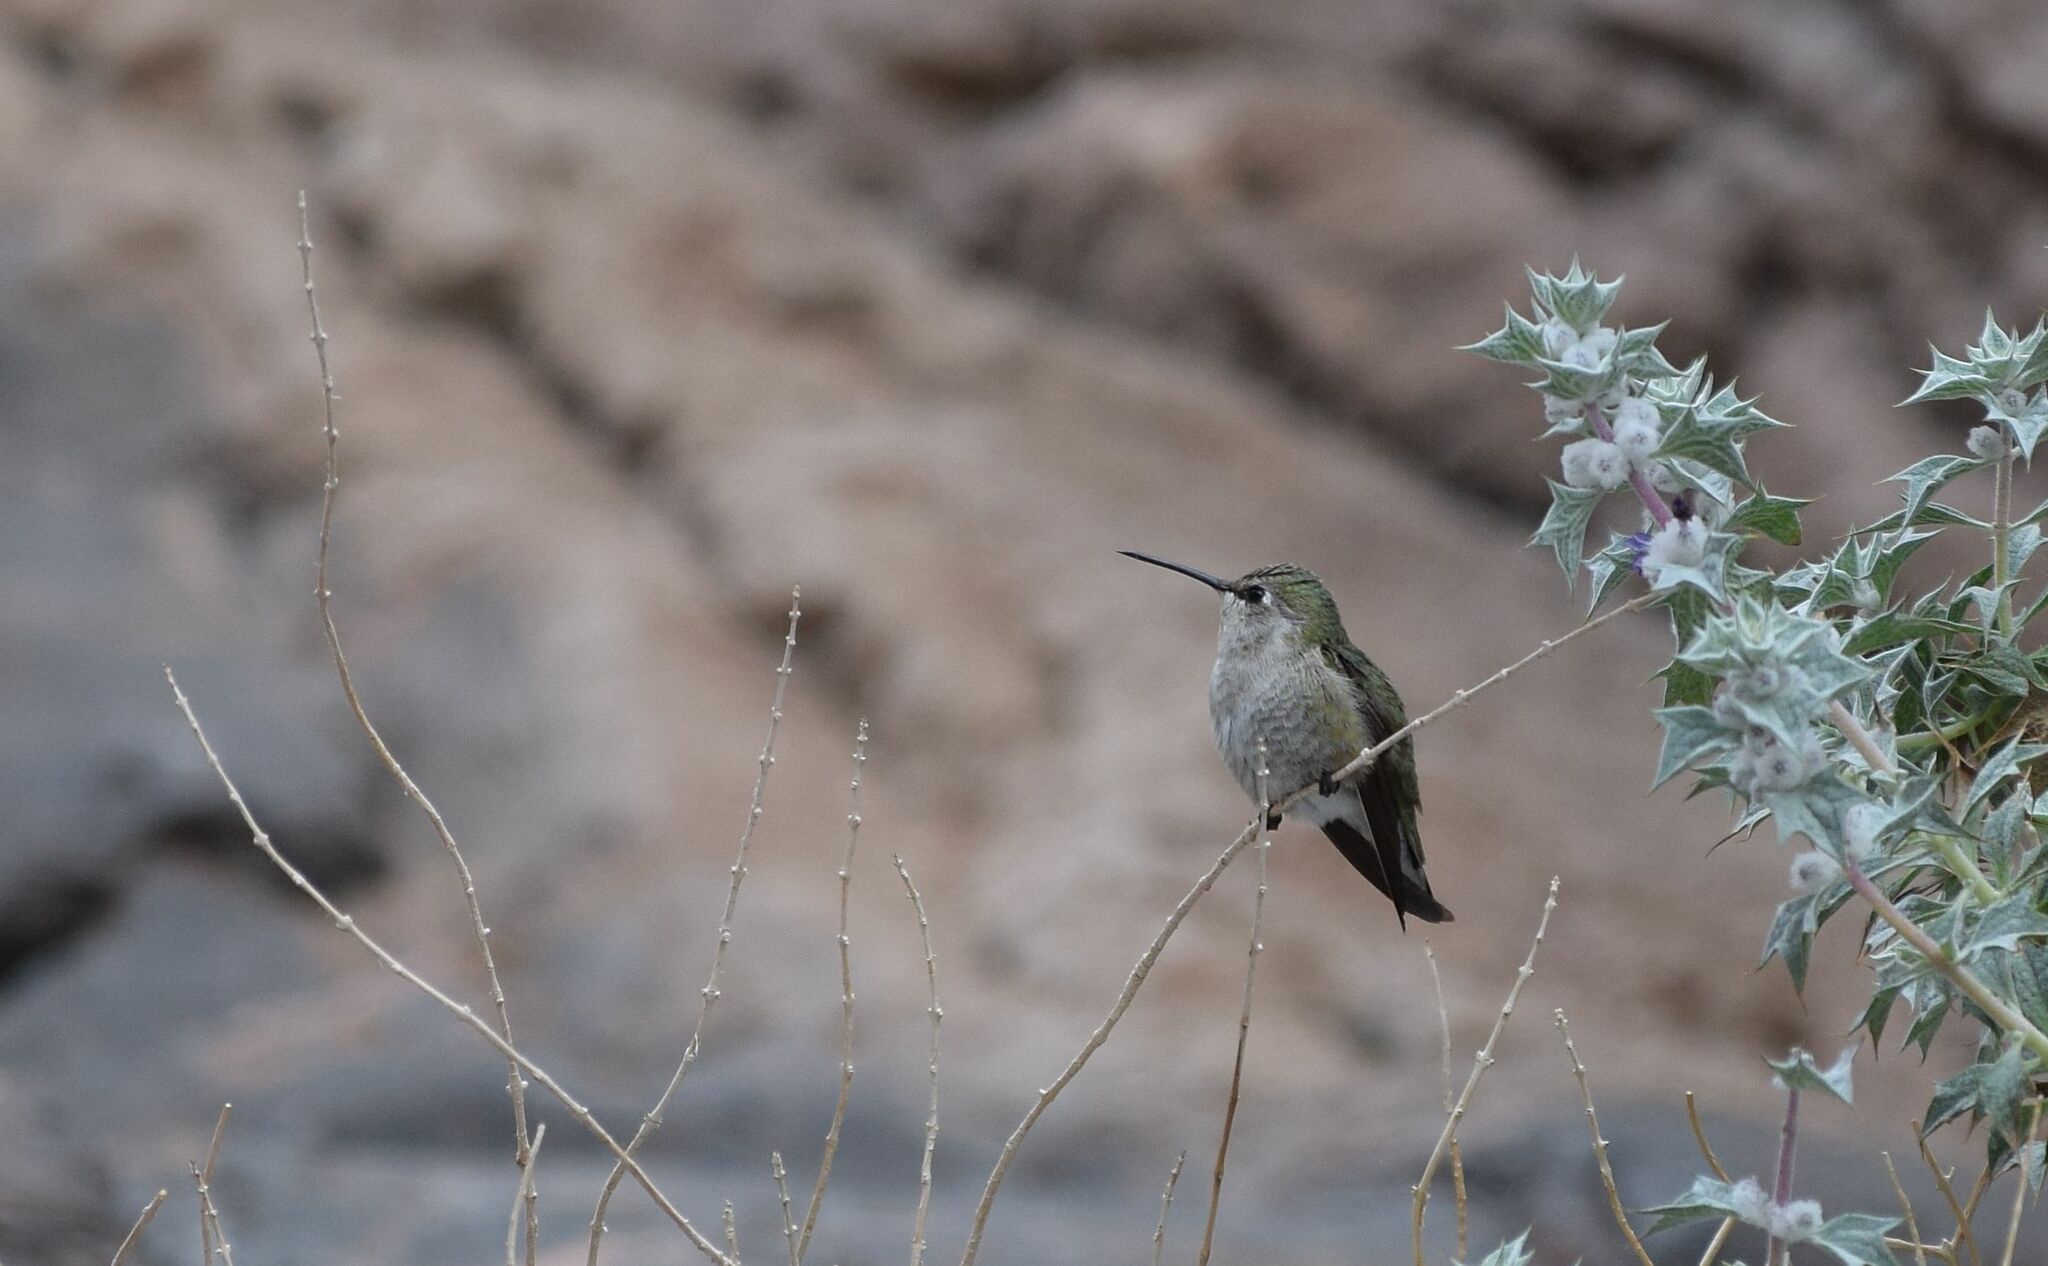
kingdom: Animalia
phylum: Chordata
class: Aves
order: Apodiformes
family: Trochilidae
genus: Calypte
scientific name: Calypte anna
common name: Anna's hummingbird
